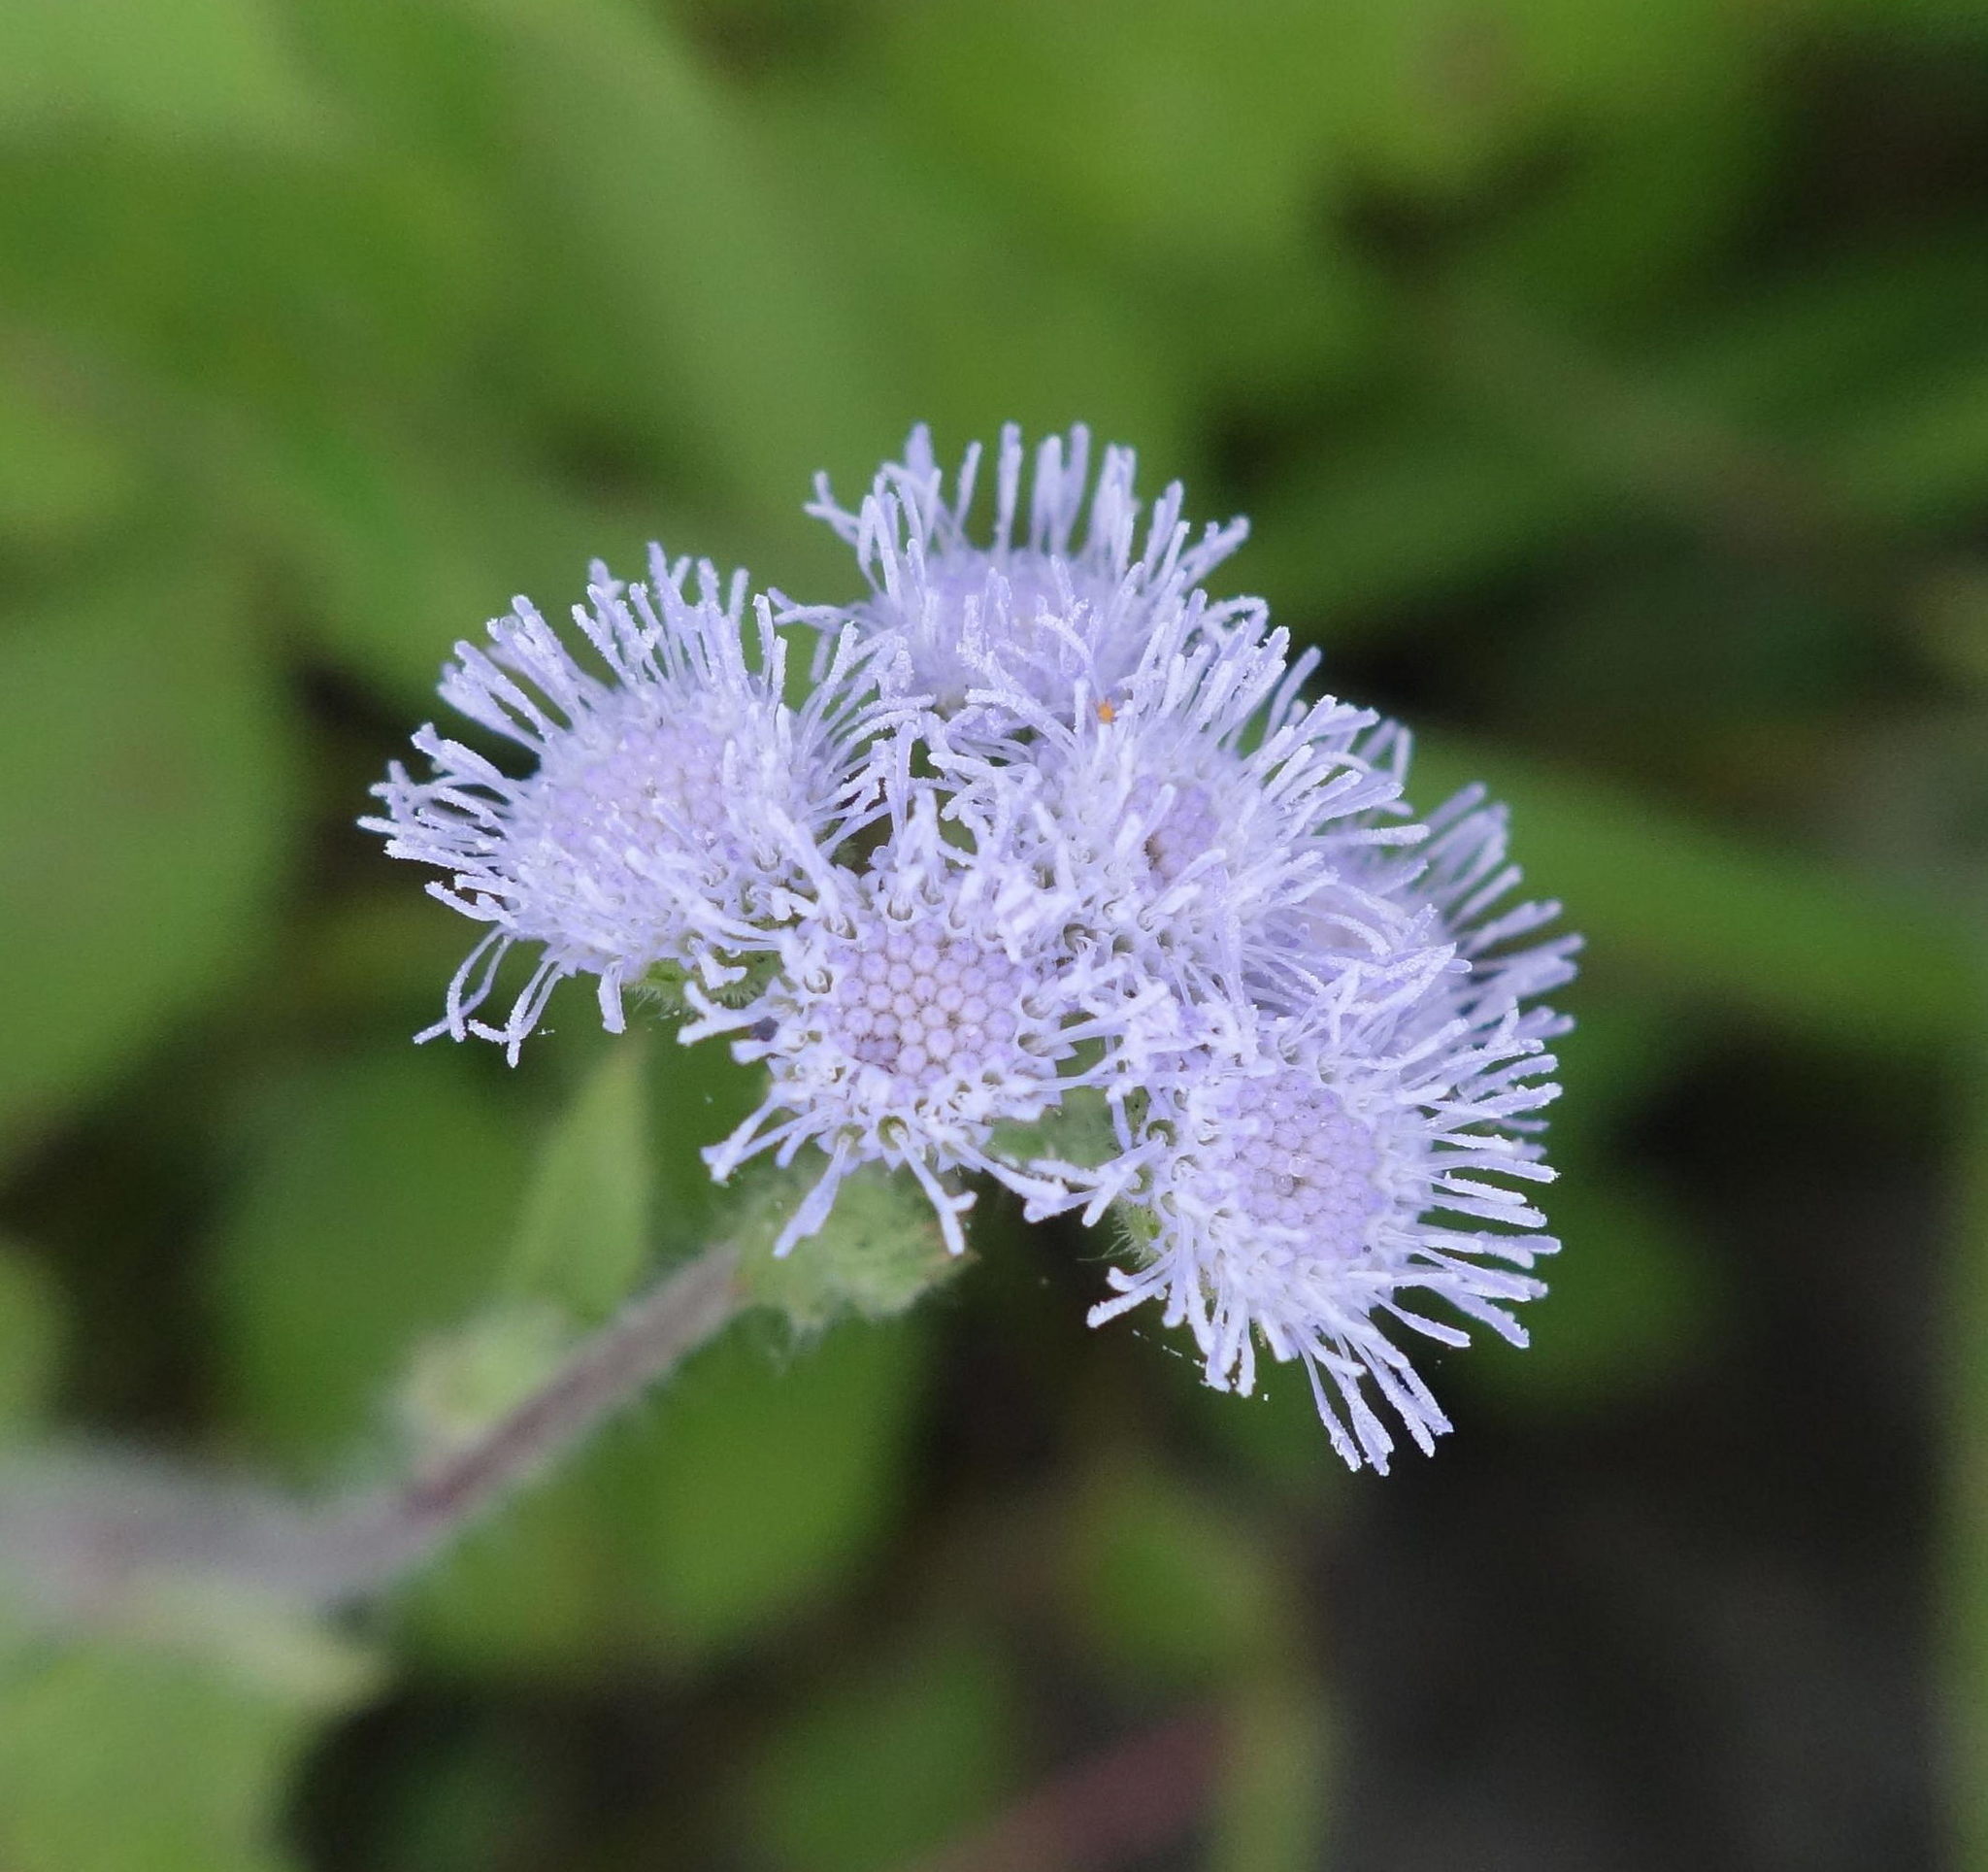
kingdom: Plantae
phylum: Tracheophyta
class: Magnoliopsida
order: Asterales
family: Asteraceae
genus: Ageratum
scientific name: Ageratum houstonianum
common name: Bluemink
